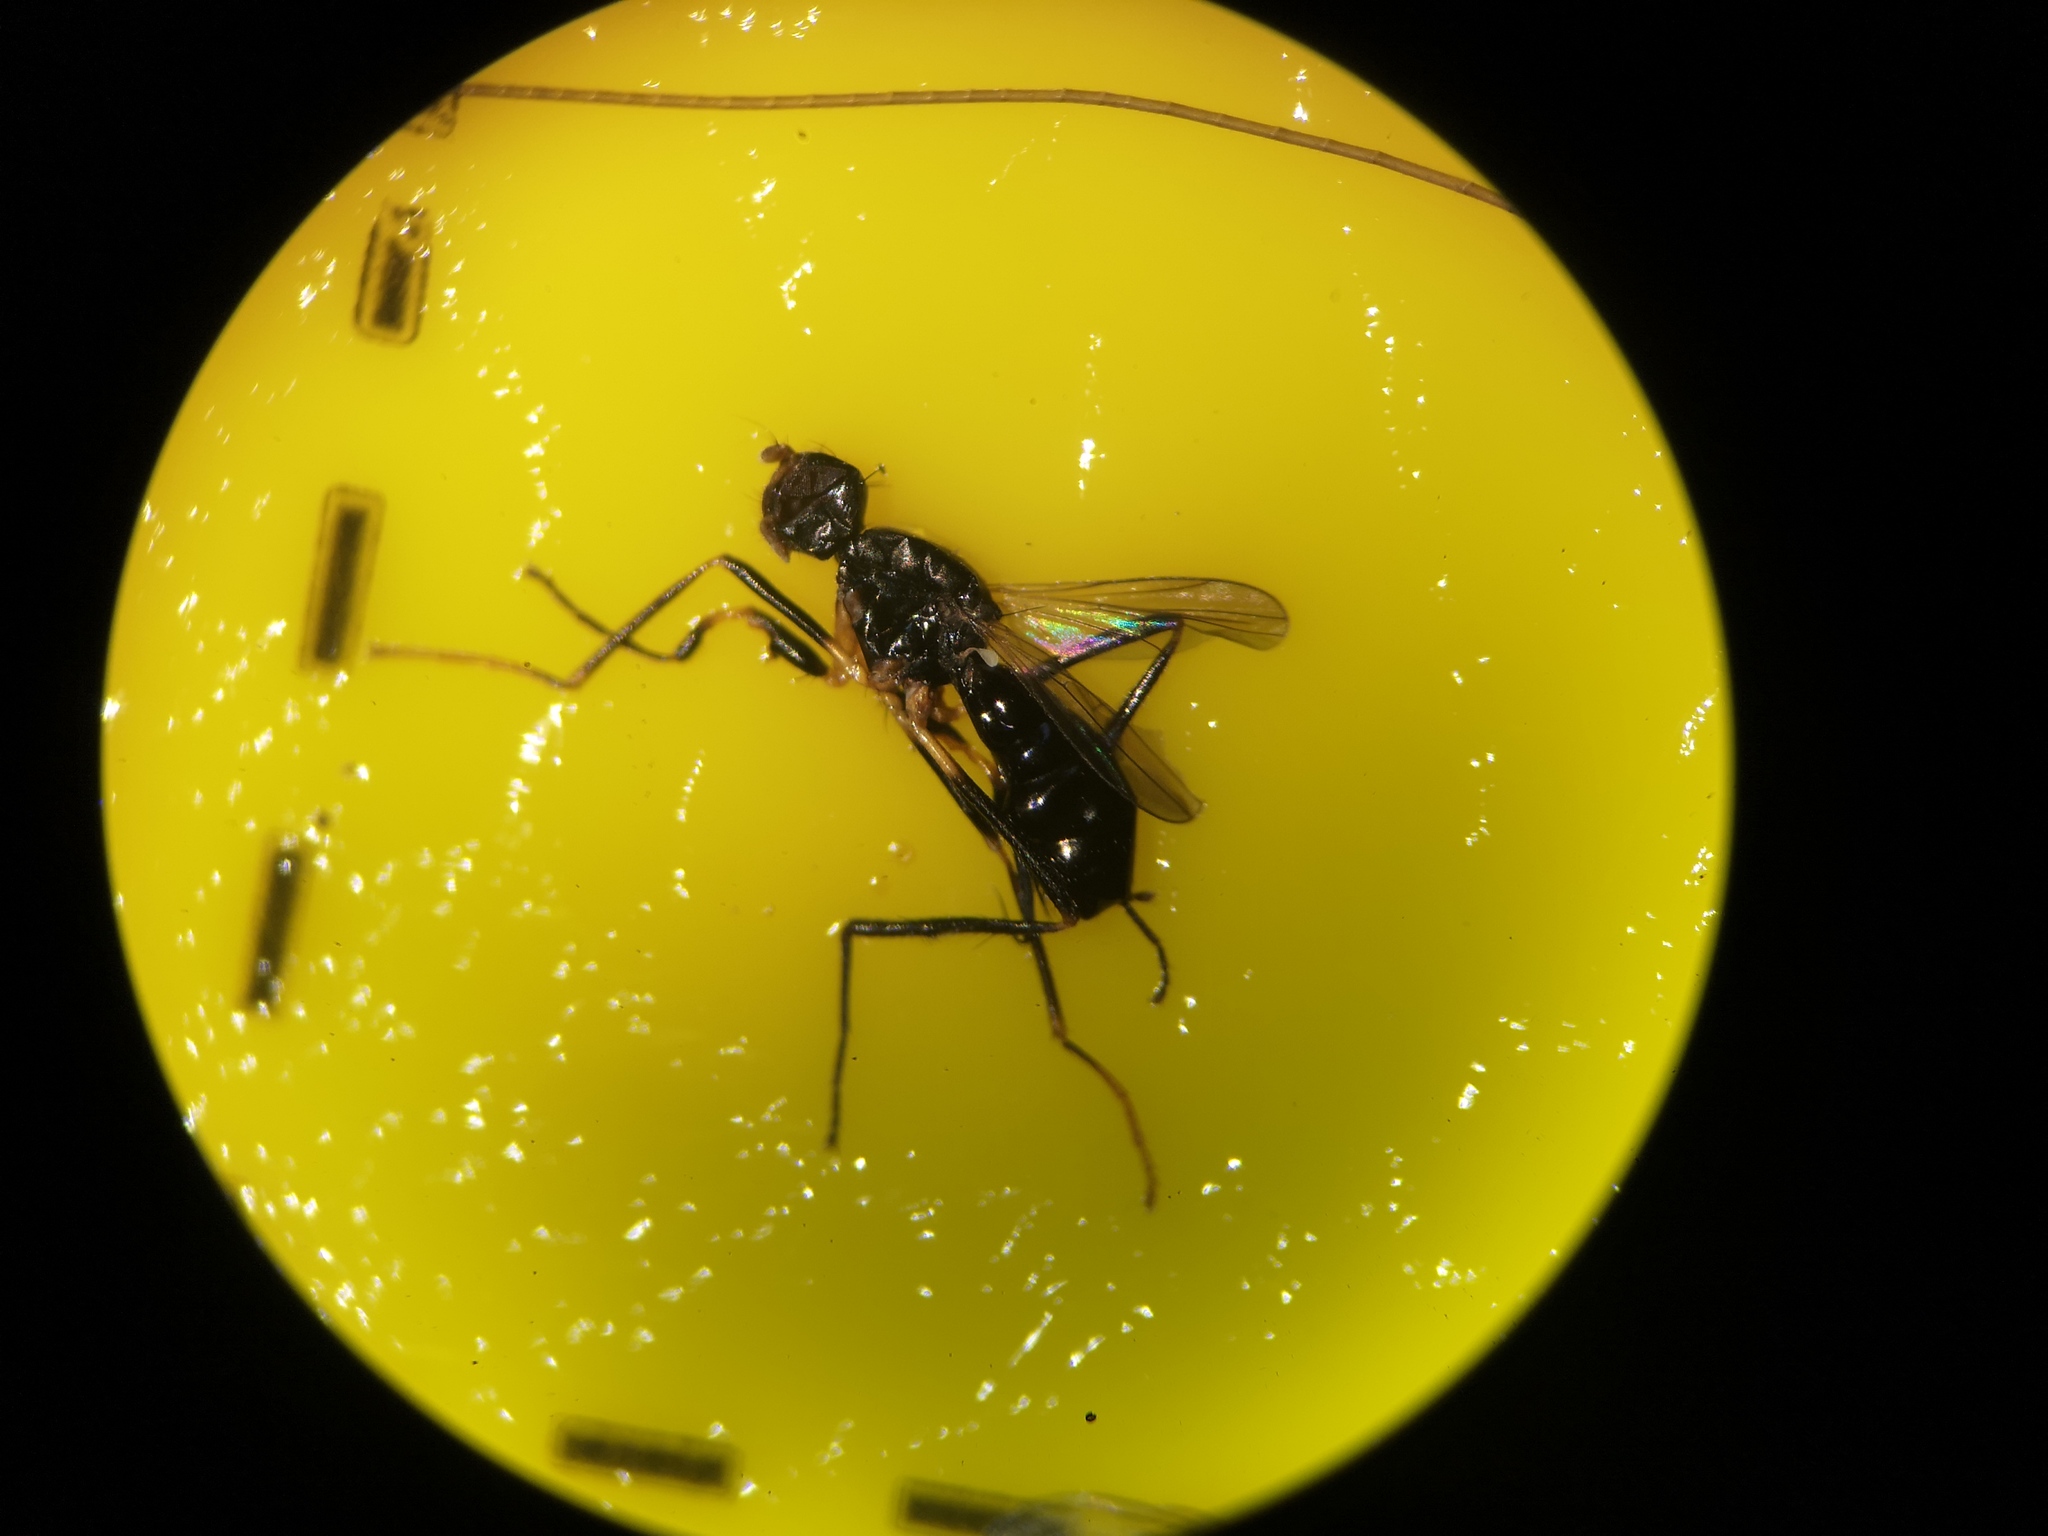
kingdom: Animalia
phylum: Arthropoda
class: Insecta
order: Diptera
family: Sepsidae
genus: Themira
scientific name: Themira leachi
